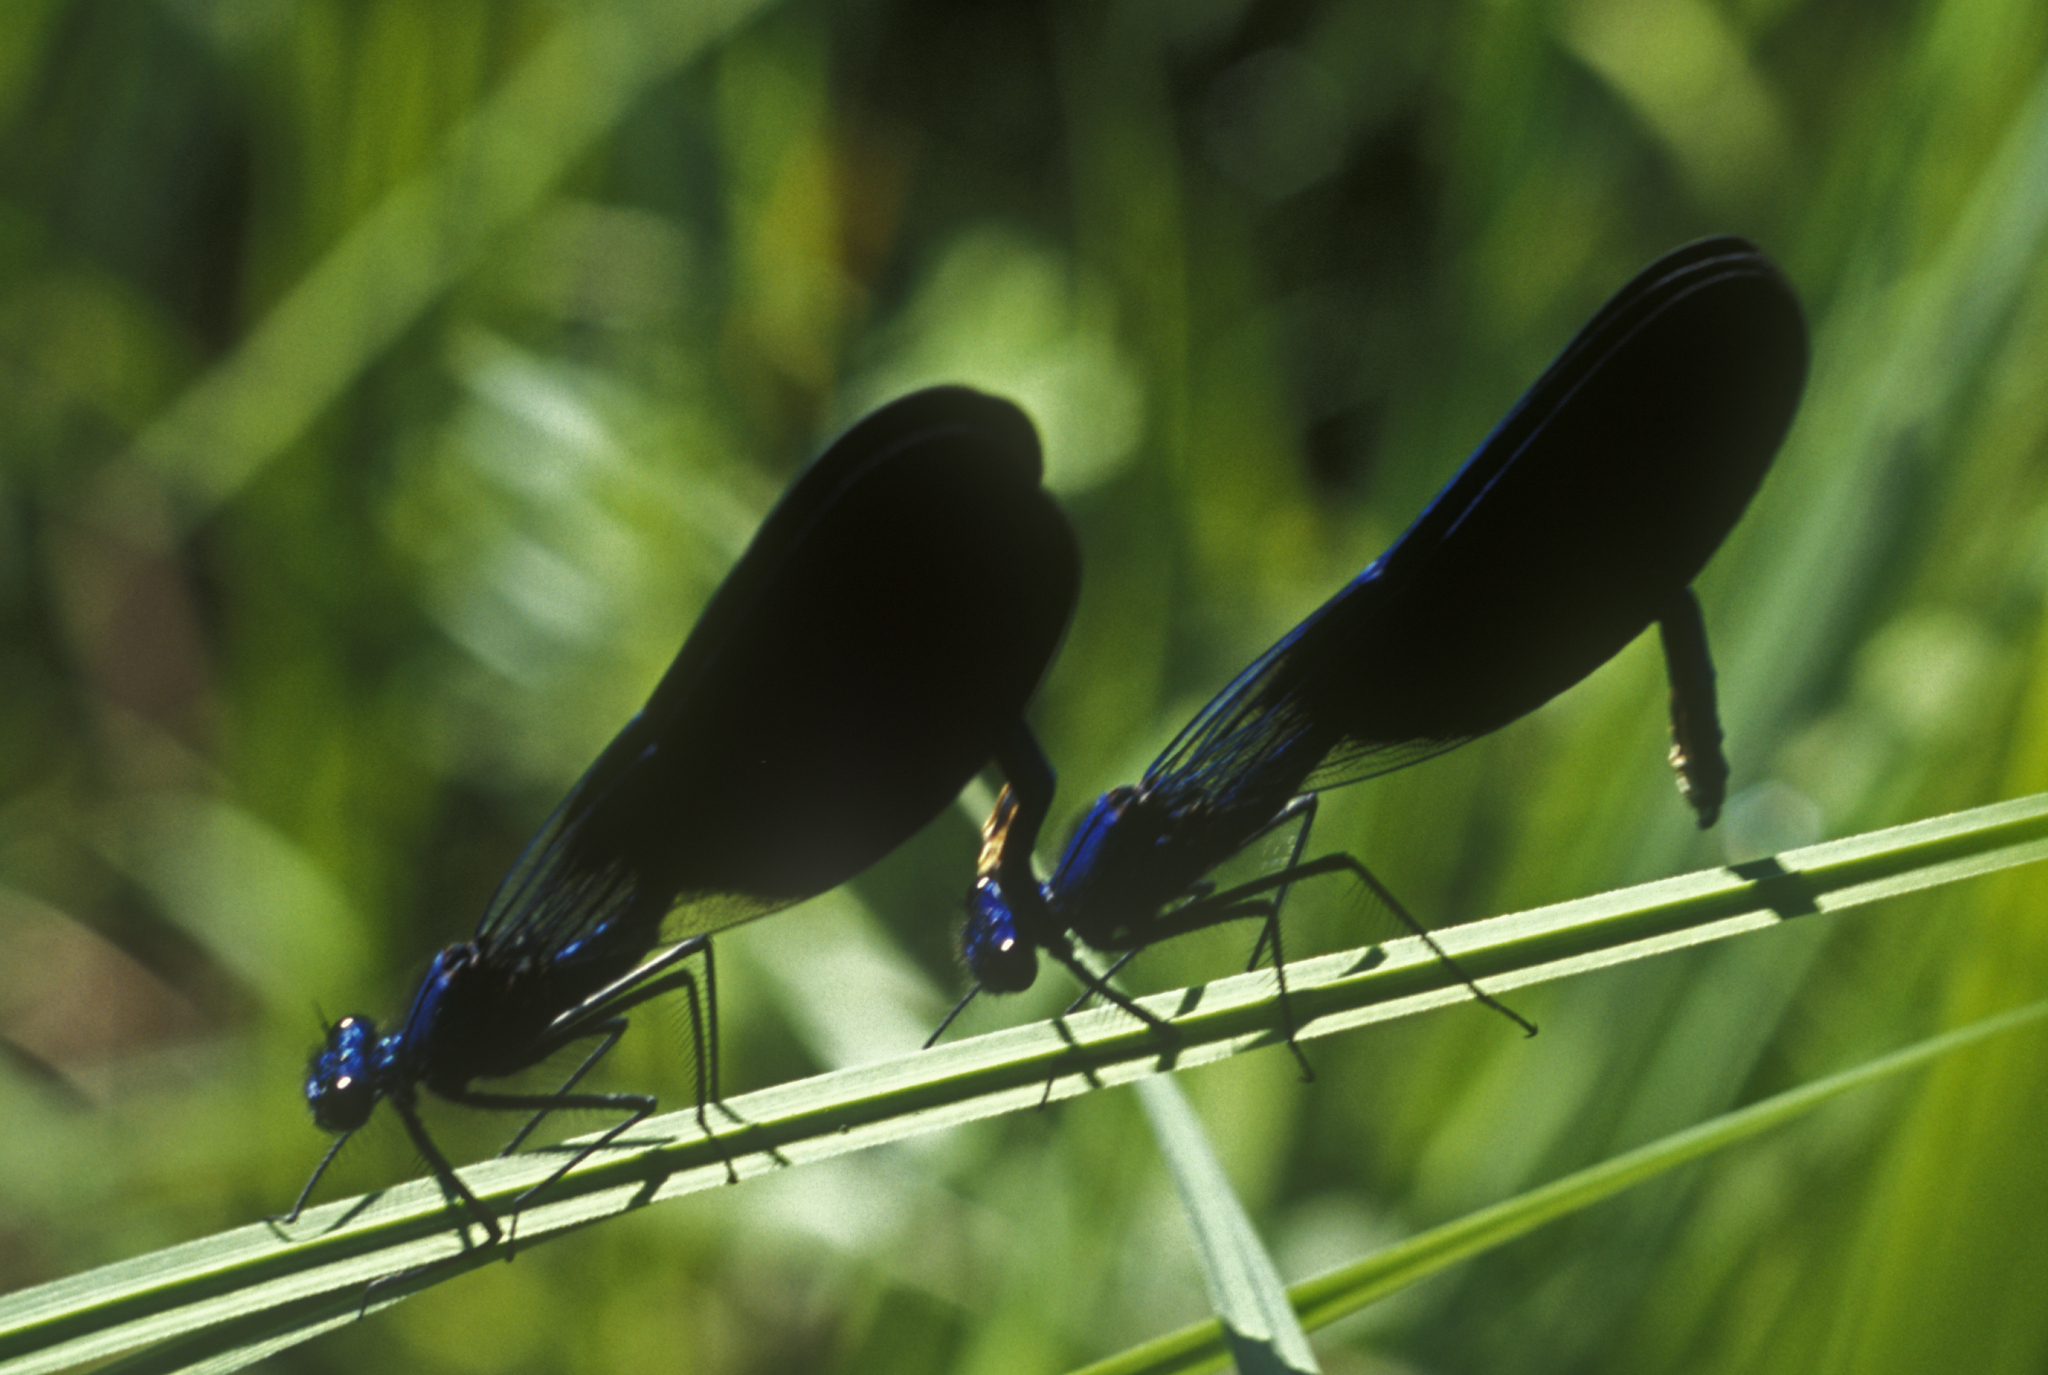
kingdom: Animalia
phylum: Arthropoda
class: Insecta
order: Odonata
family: Calopterygidae
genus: Calopteryx
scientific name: Calopteryx splendens
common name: Banded demoiselle
